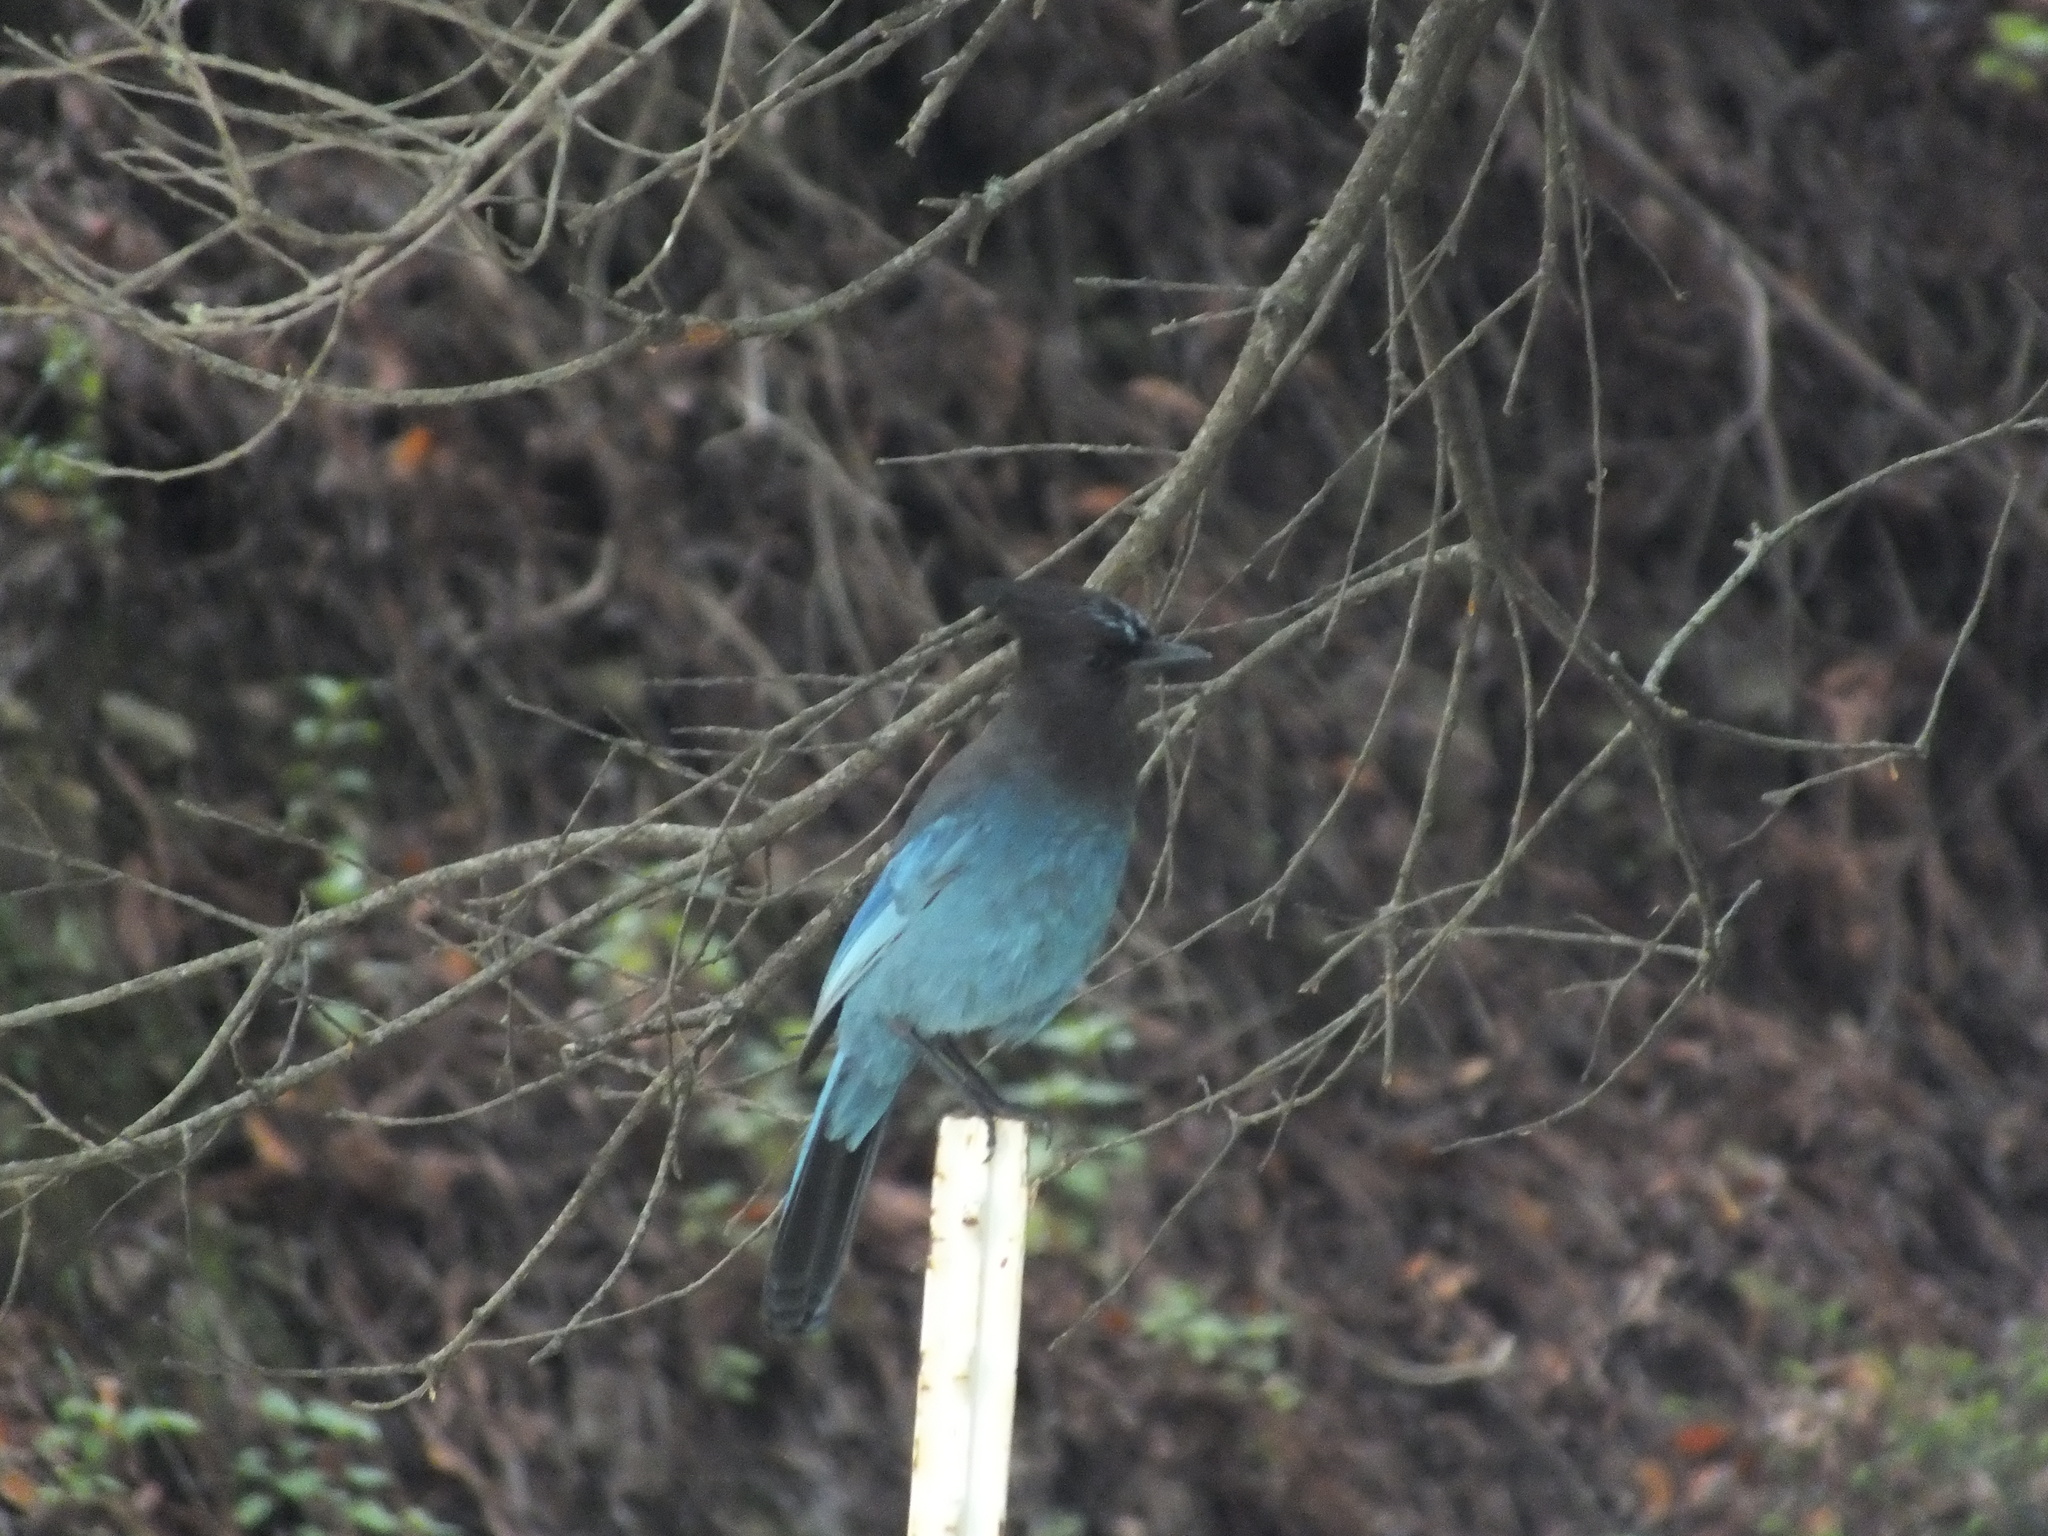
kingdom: Animalia
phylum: Chordata
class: Aves
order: Passeriformes
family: Corvidae
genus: Cyanocitta
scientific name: Cyanocitta stelleri
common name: Steller's jay
